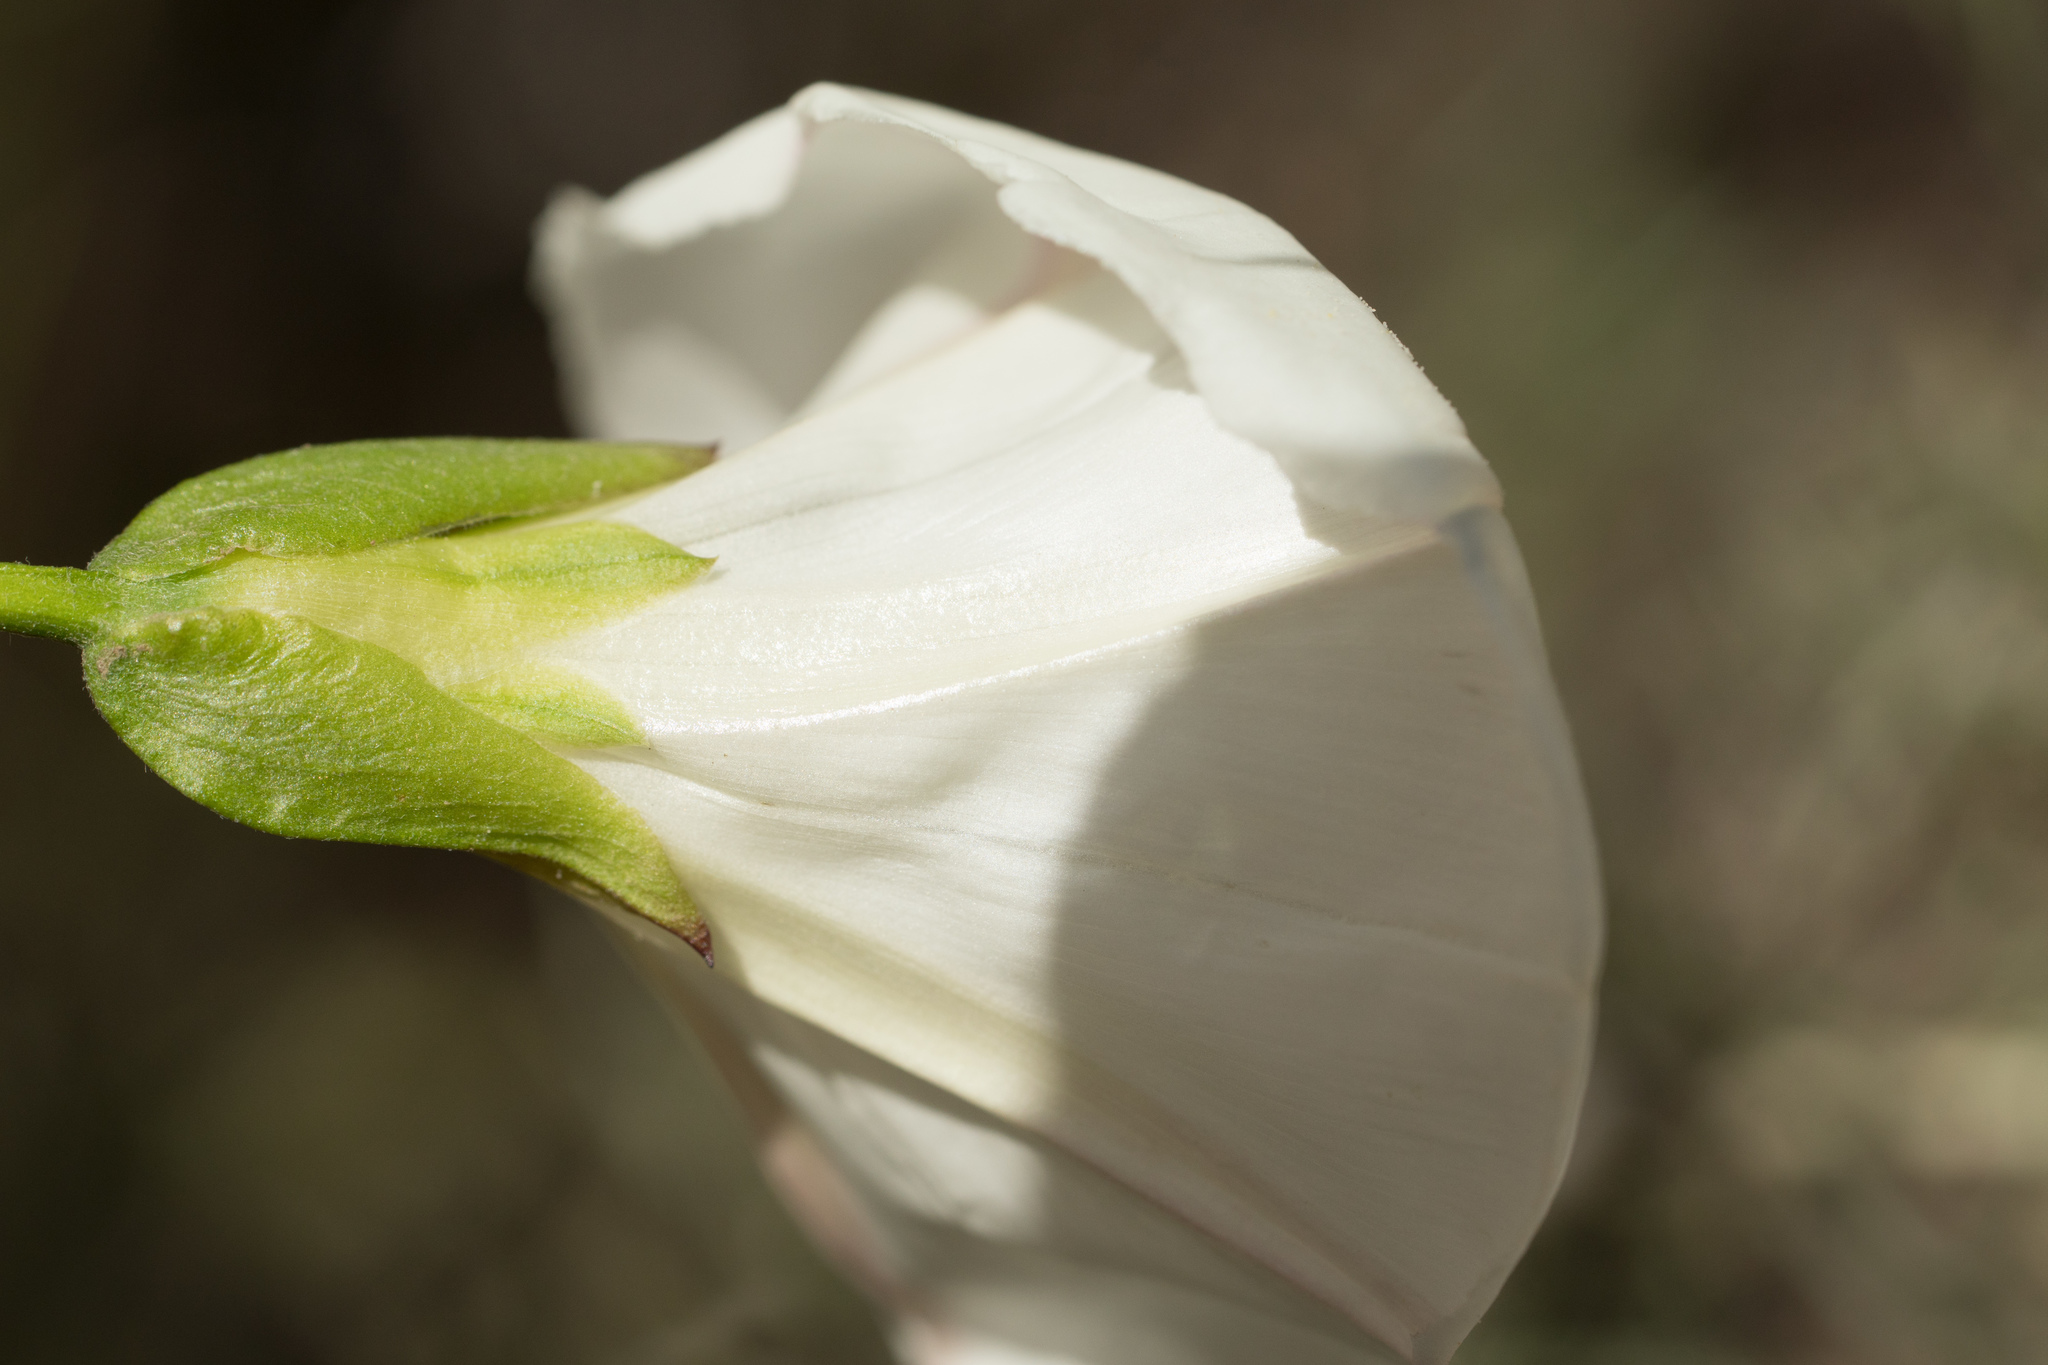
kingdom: Plantae
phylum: Tracheophyta
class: Magnoliopsida
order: Solanales
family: Convolvulaceae
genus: Calystegia
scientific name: Calystegia macrostegia
